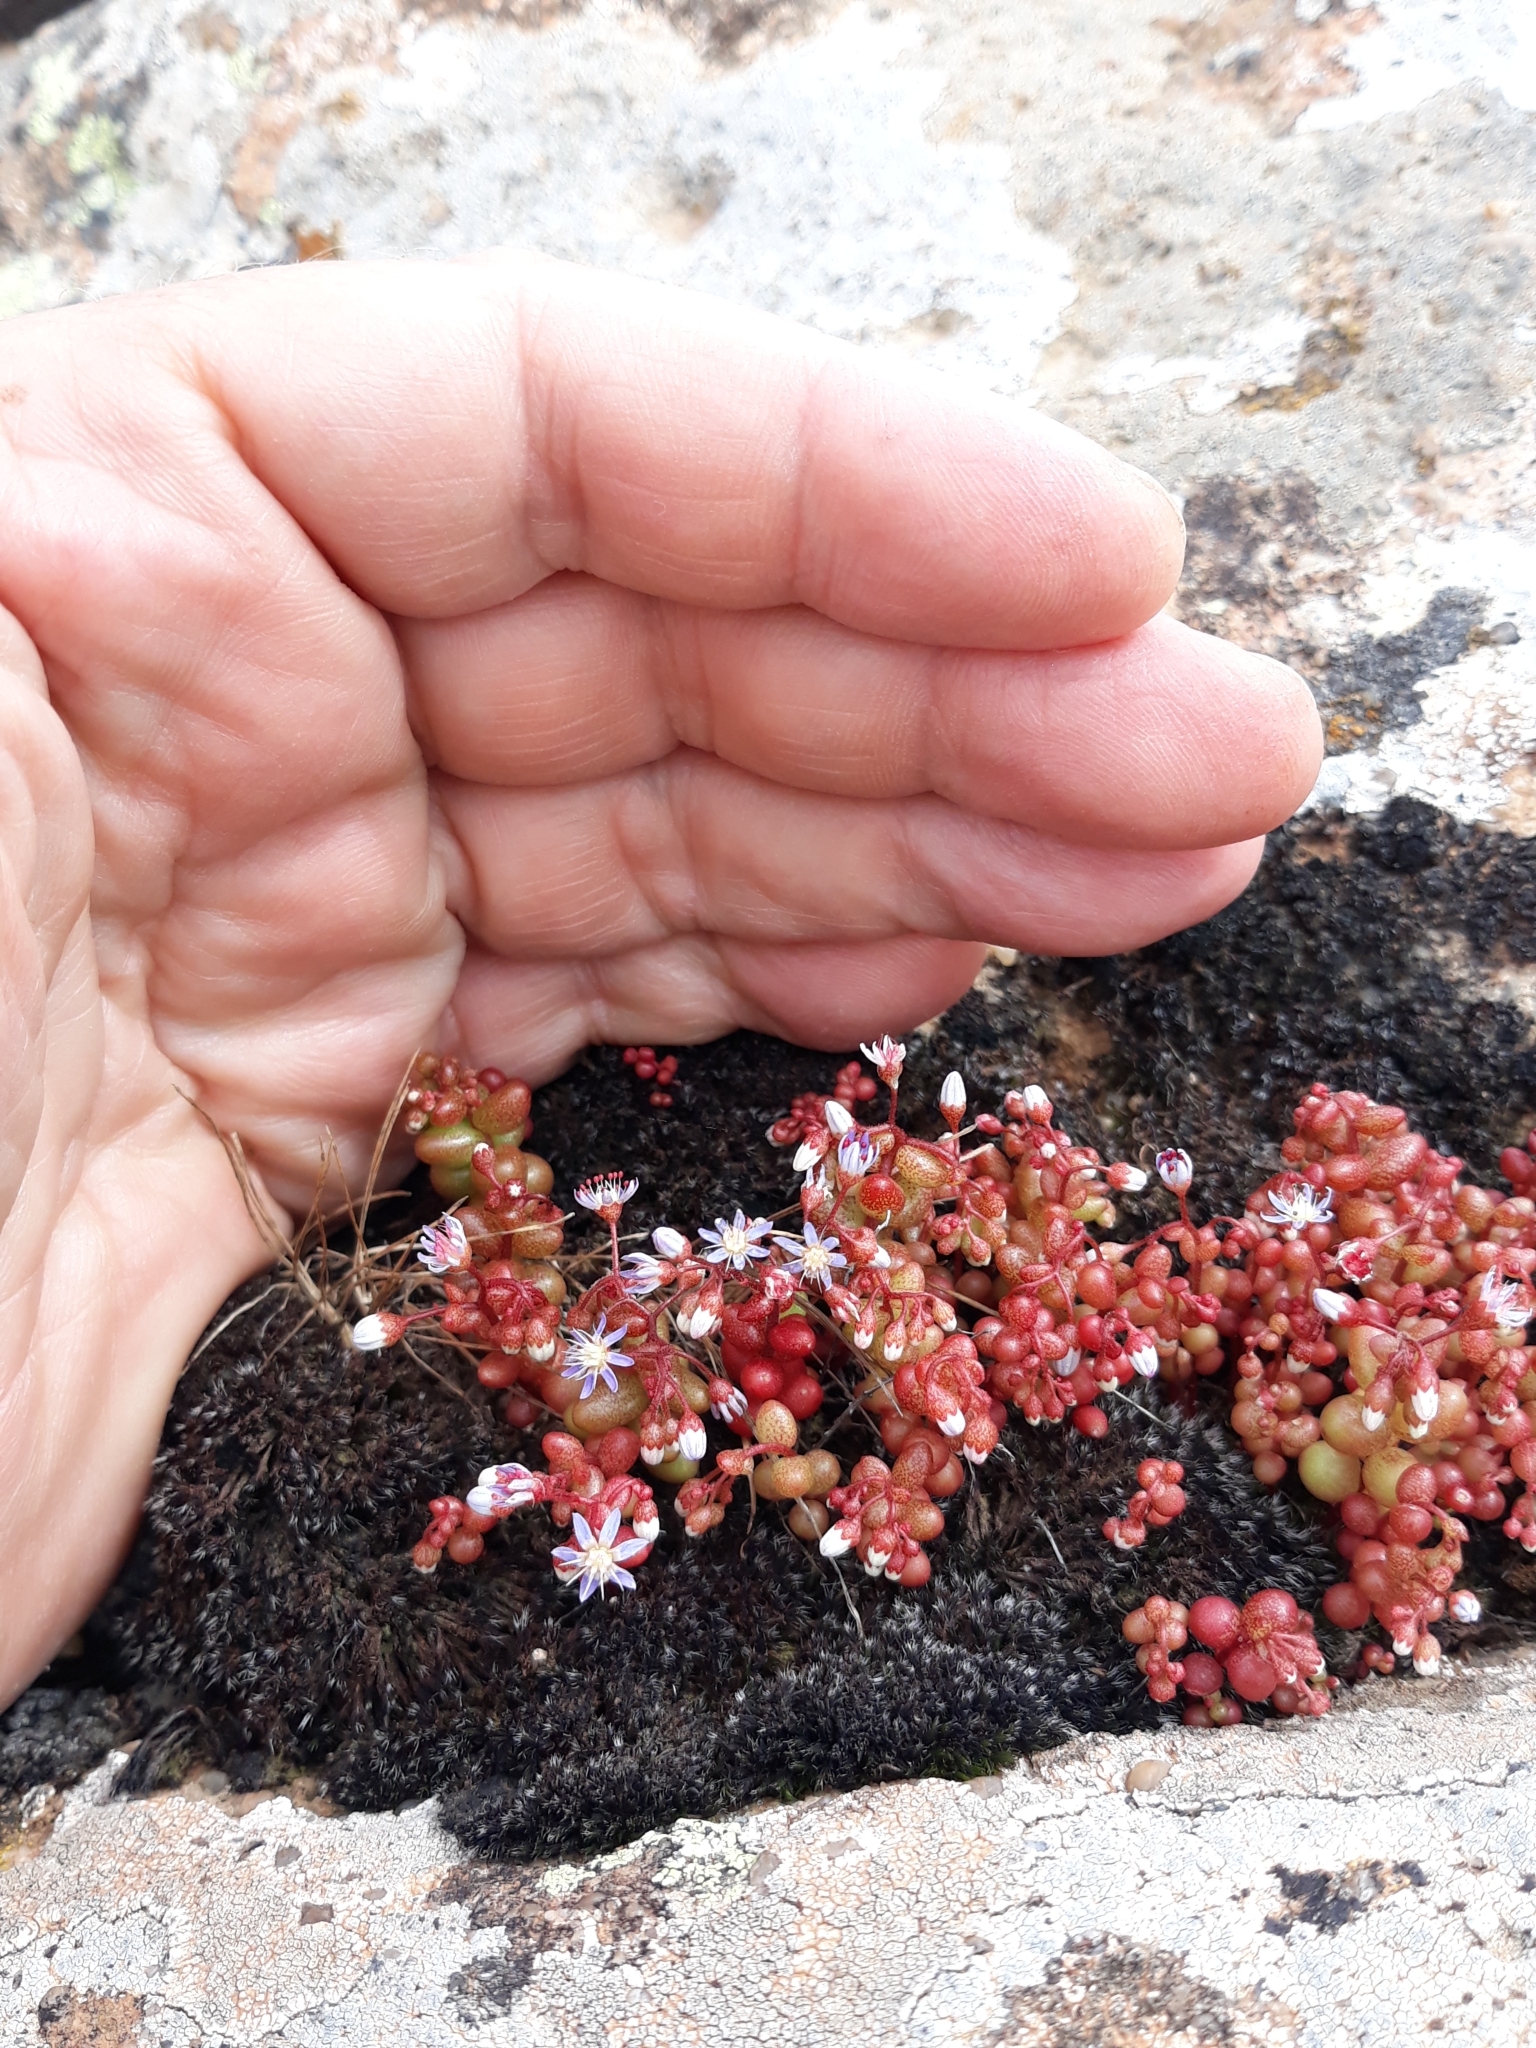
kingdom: Plantae
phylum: Tracheophyta
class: Magnoliopsida
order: Saxifragales
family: Crassulaceae
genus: Sedum
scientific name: Sedum caeruleum
